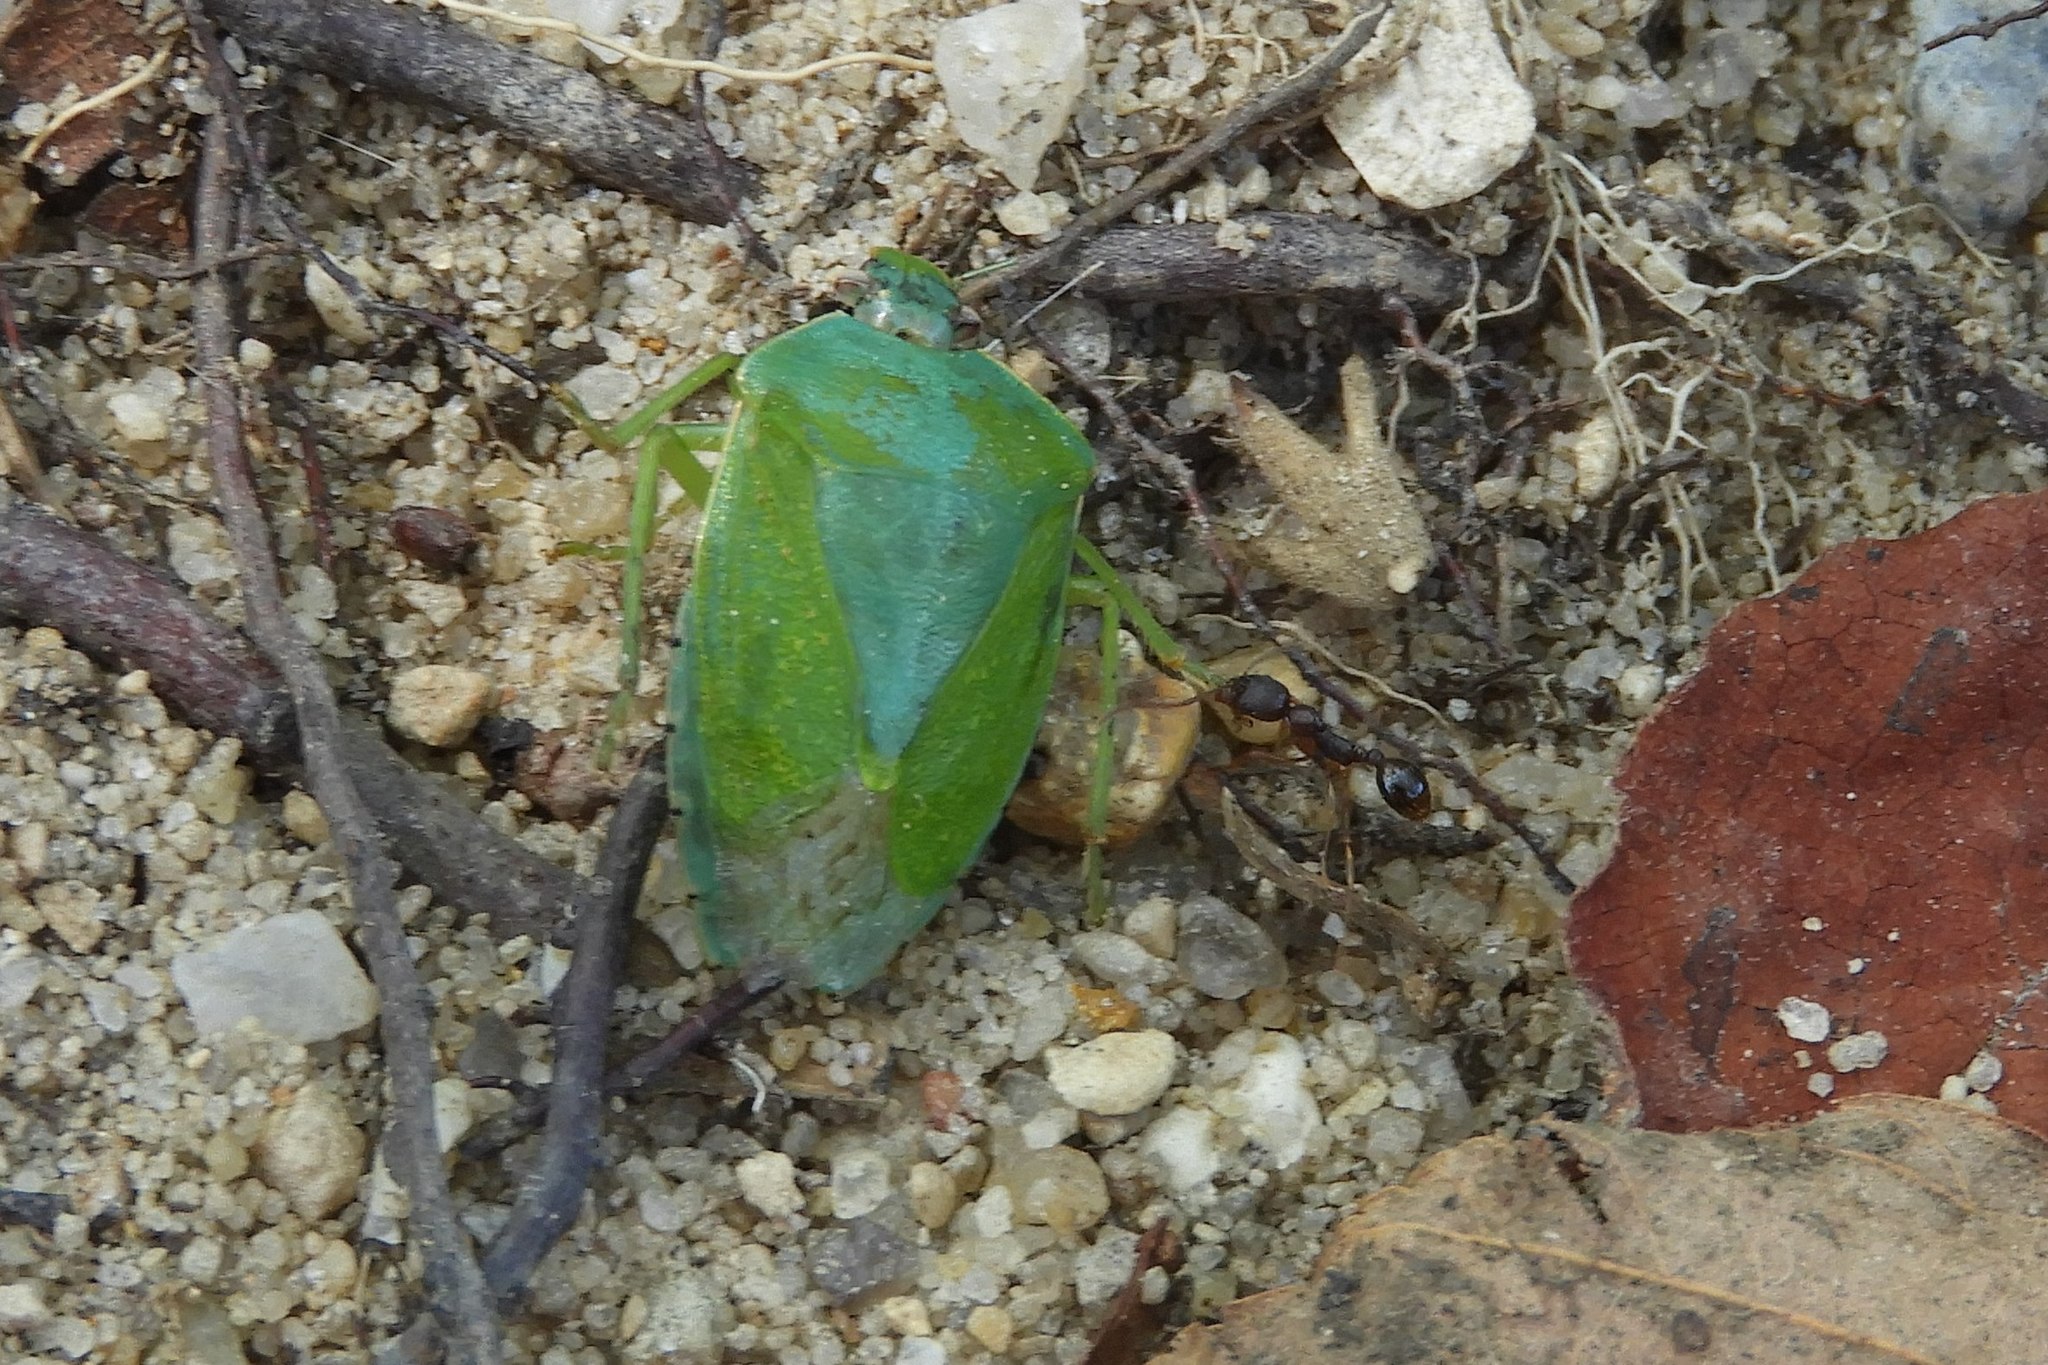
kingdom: Animalia
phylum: Arthropoda
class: Insecta
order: Hemiptera
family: Pentatomidae
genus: Chinavia
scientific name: Chinavia hilaris
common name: Green stink bug
